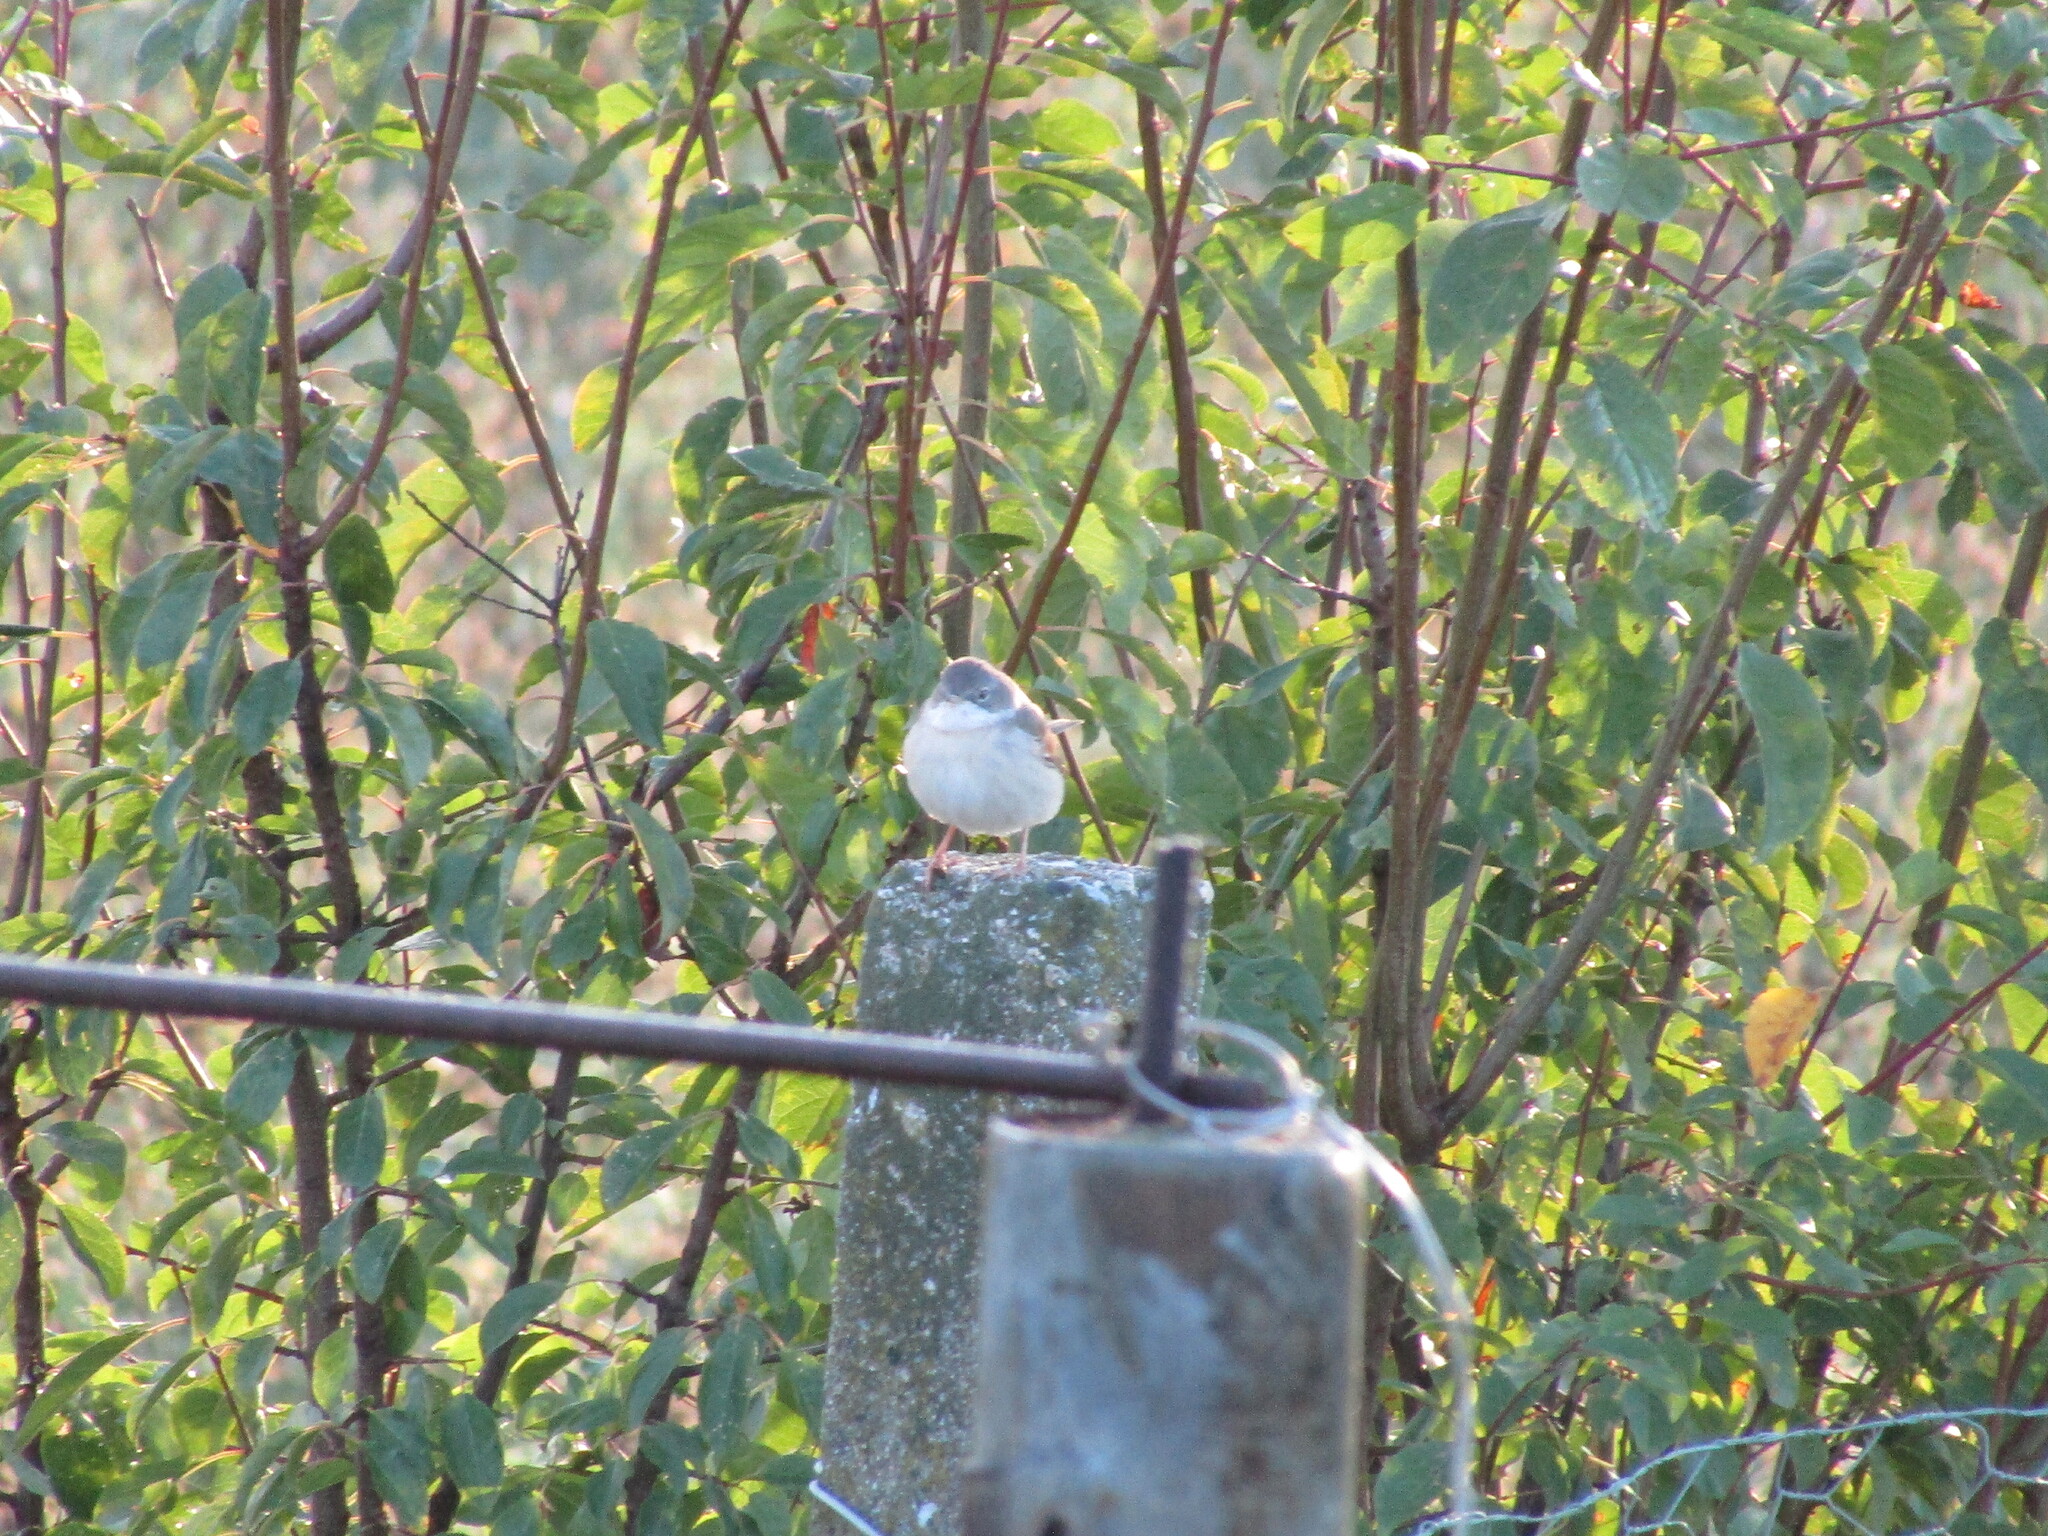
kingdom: Animalia
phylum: Chordata
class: Aves
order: Passeriformes
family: Sylviidae
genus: Sylvia
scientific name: Sylvia communis
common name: Common whitethroat
